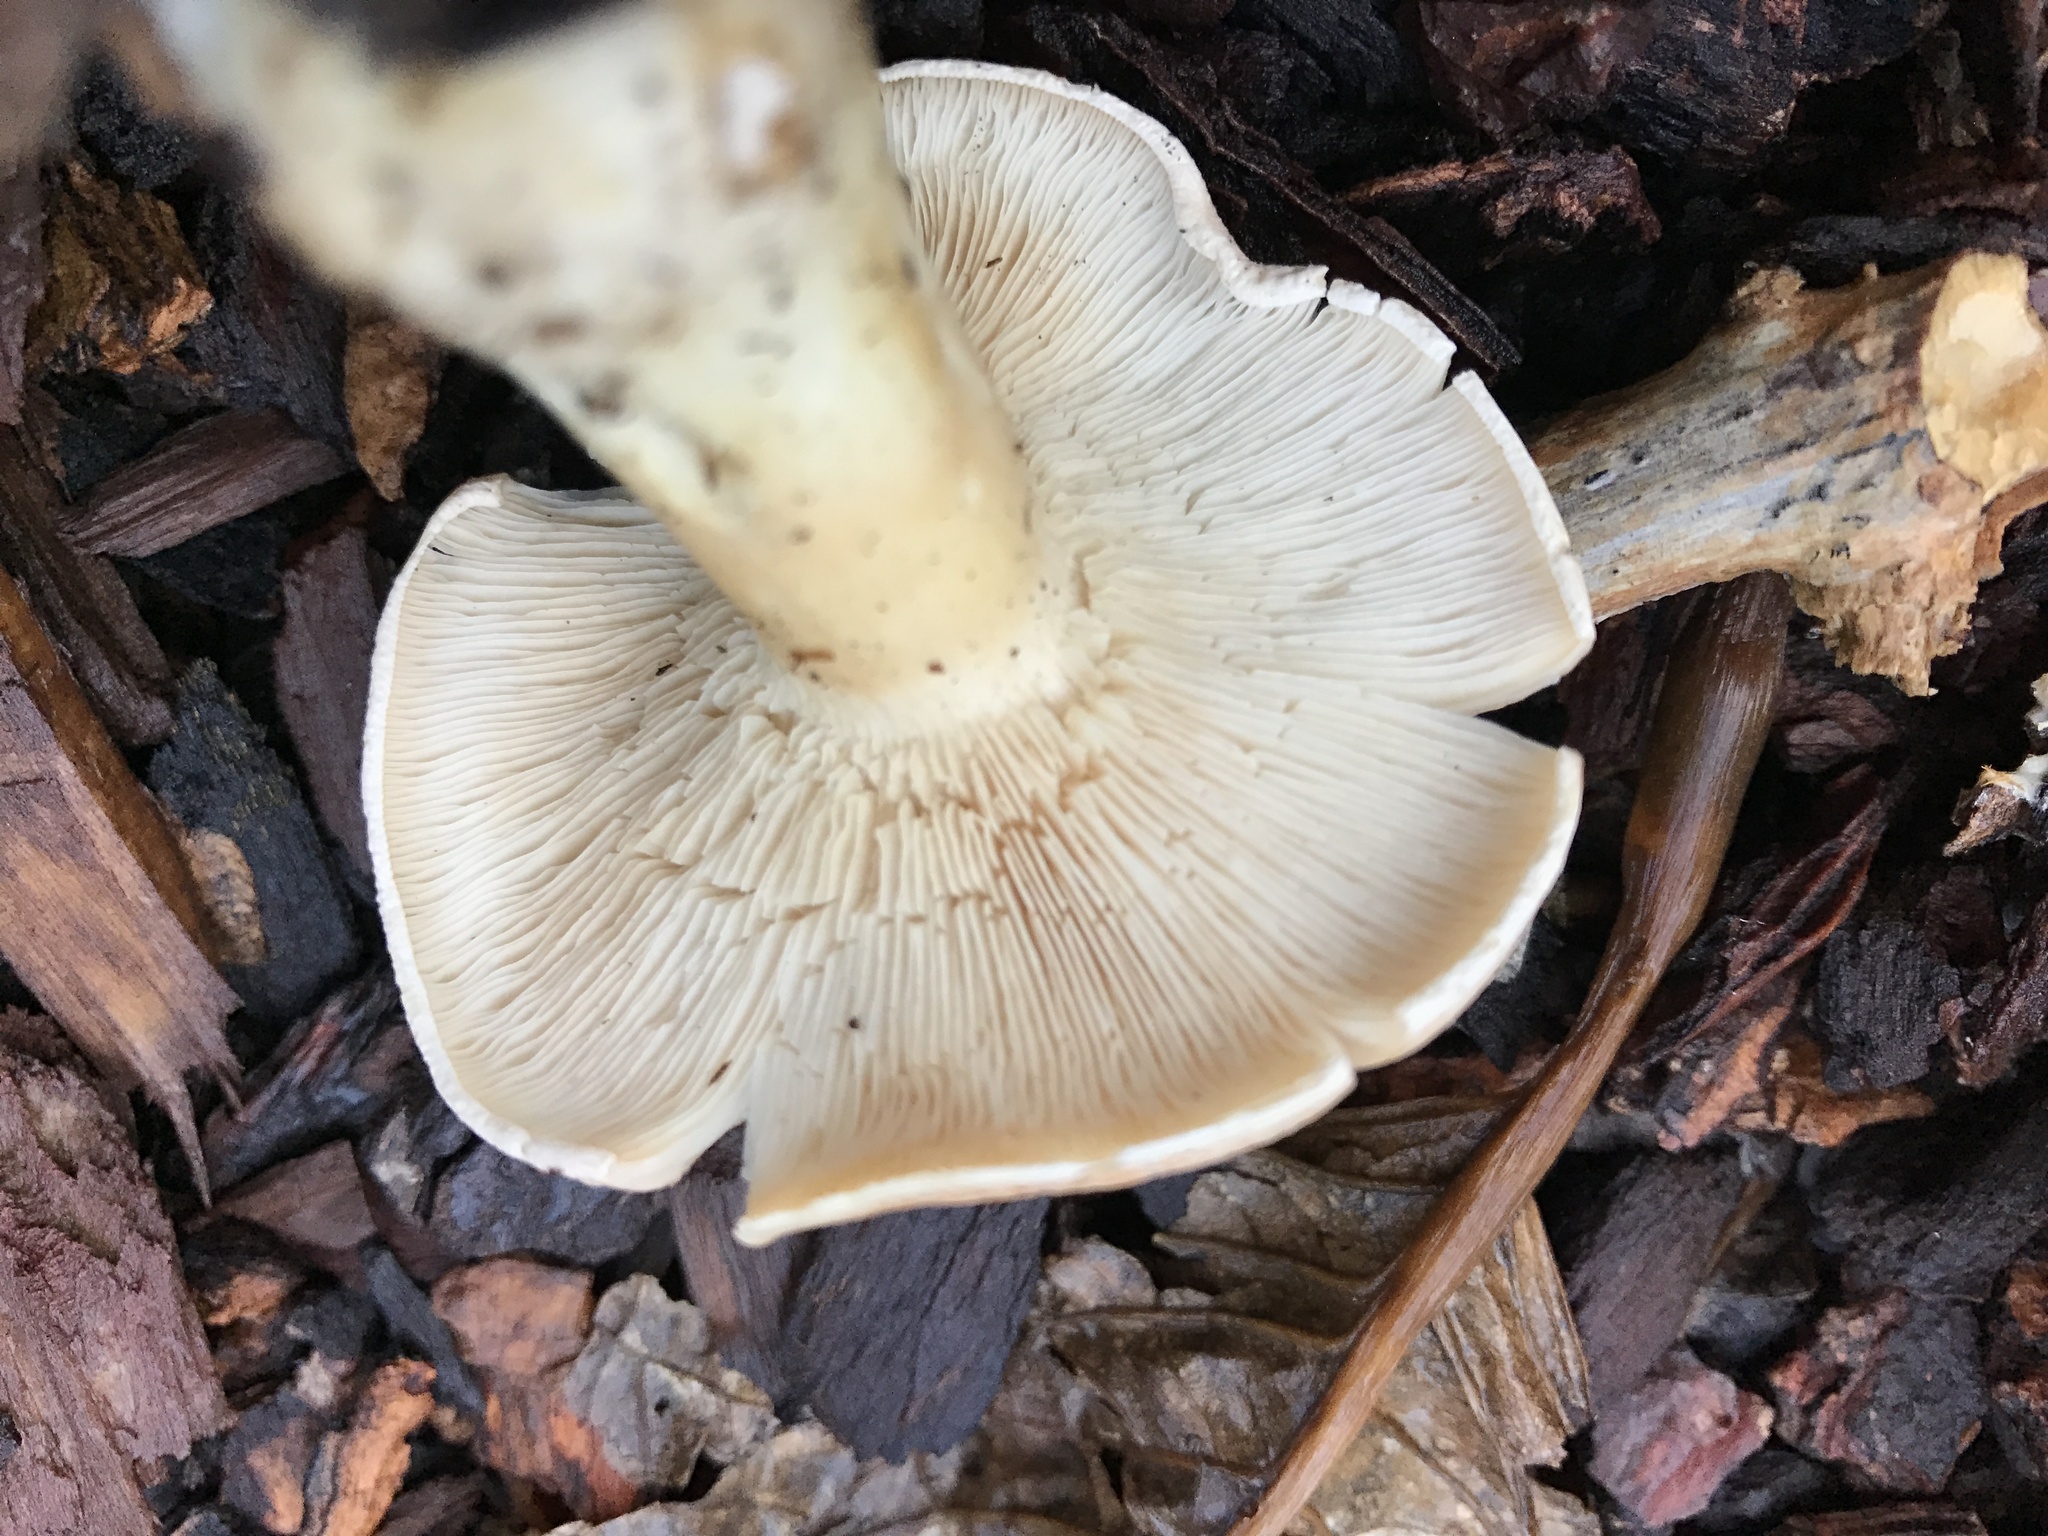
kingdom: Fungi
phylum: Basidiomycota
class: Agaricomycetes
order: Agaricales
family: Tricholomataceae
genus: Leucopaxillus
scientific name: Leucopaxillus gentianeus
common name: Bitter funnel
